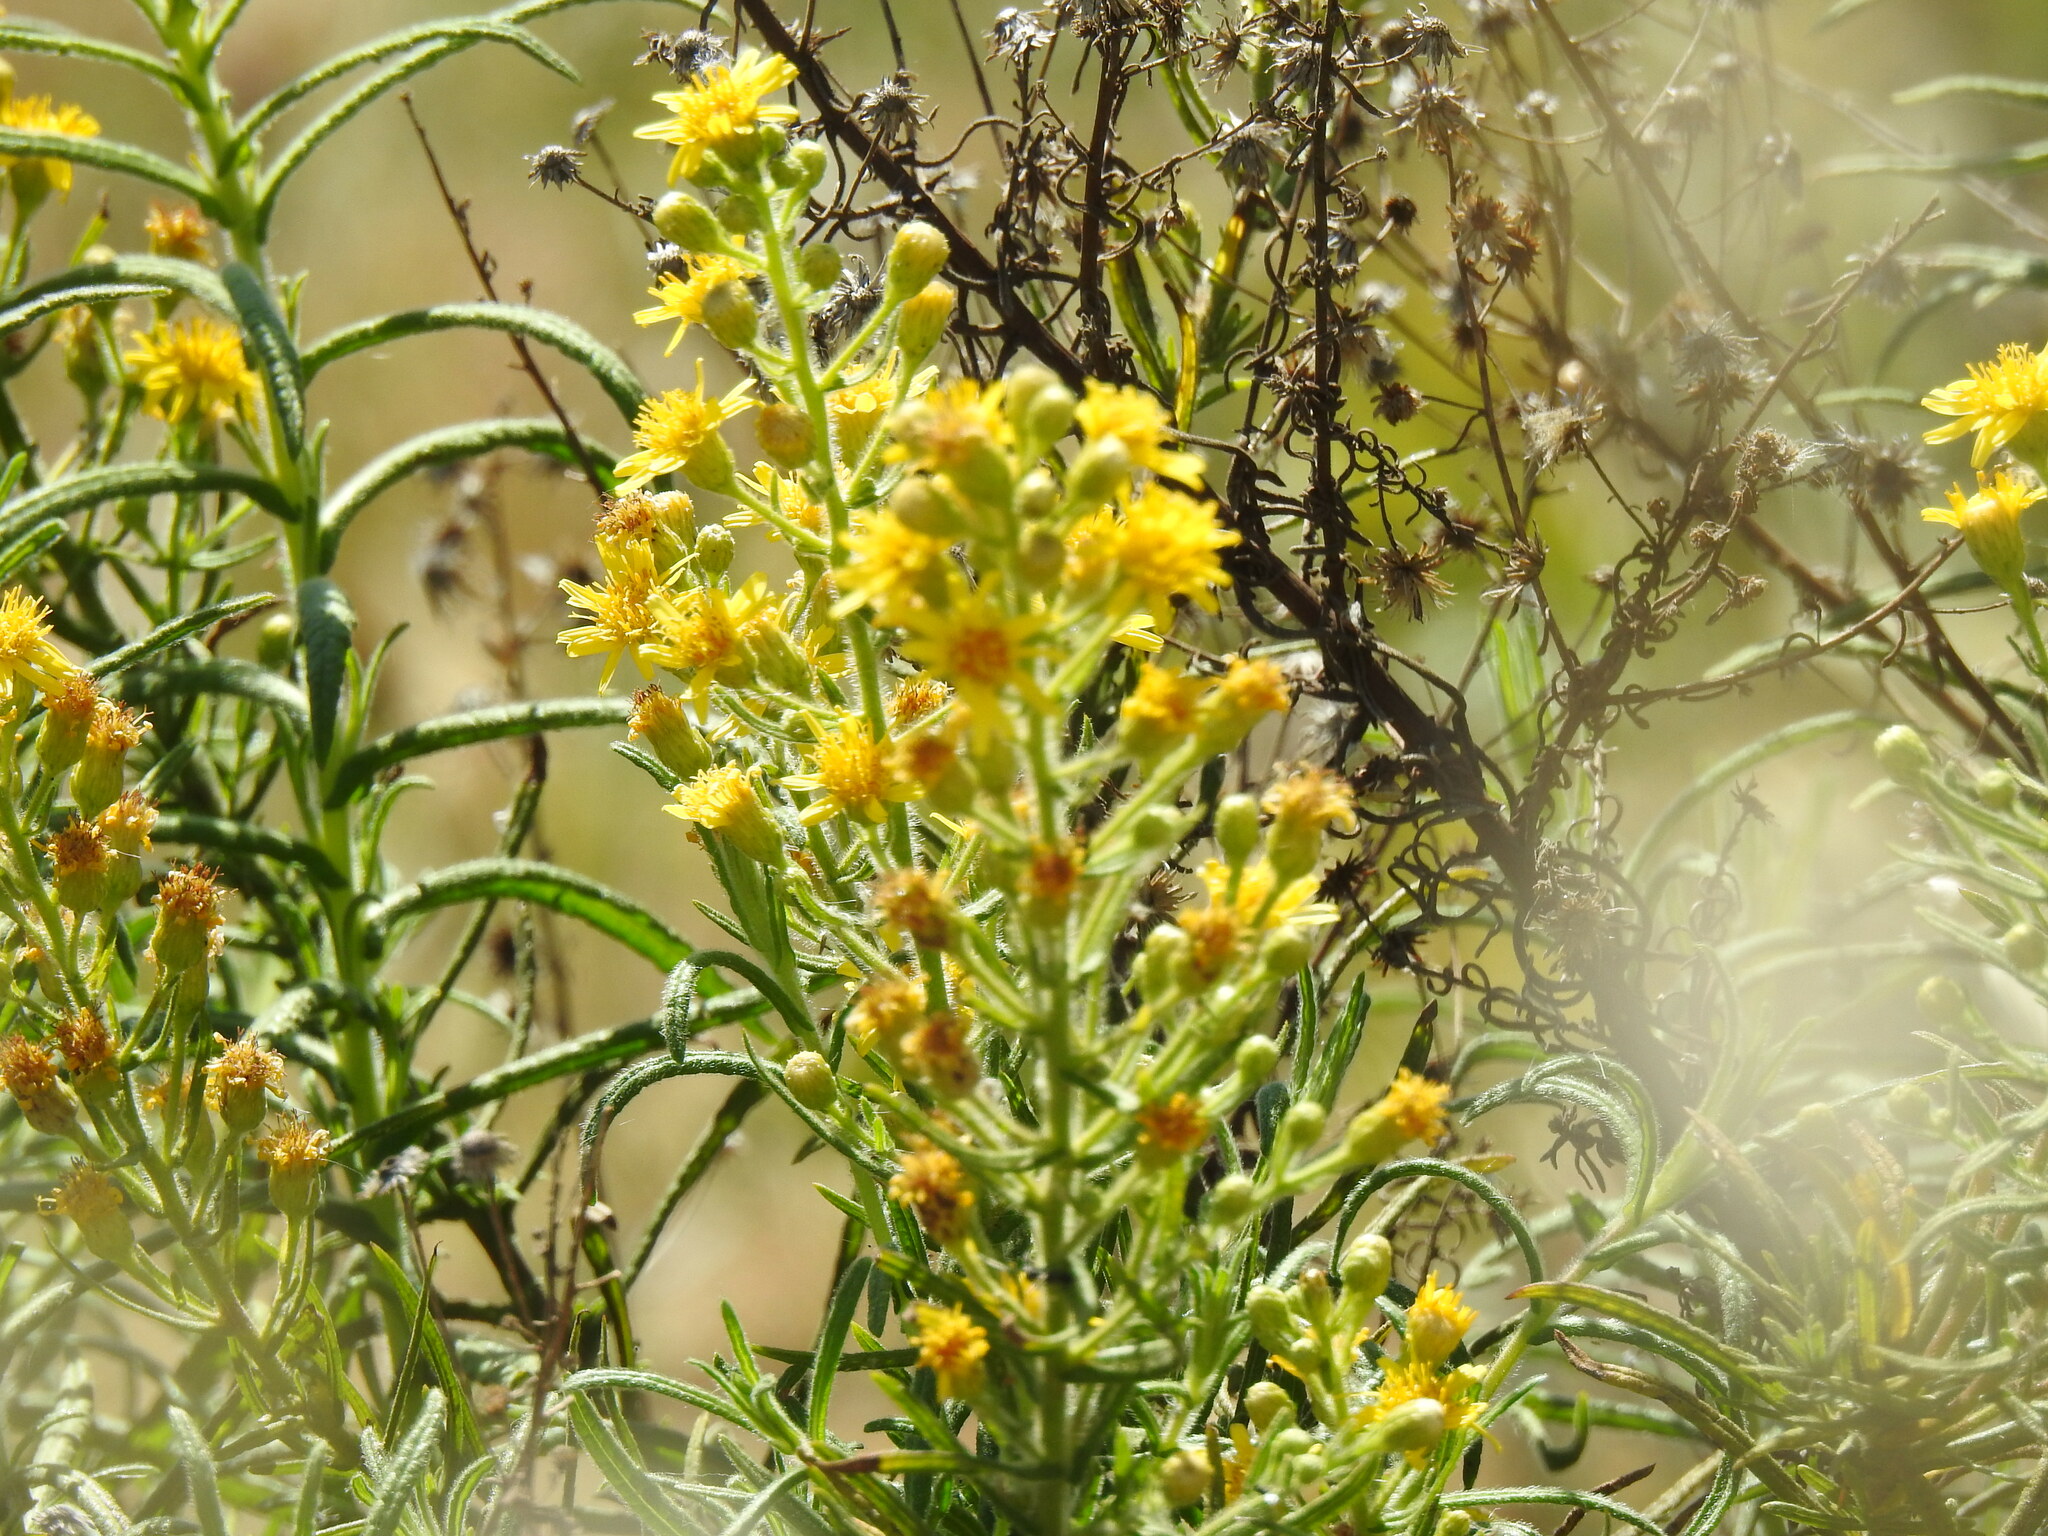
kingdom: Plantae
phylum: Tracheophyta
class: Magnoliopsida
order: Asterales
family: Asteraceae
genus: Dittrichia
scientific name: Dittrichia viscosa
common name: Woody fleabane
